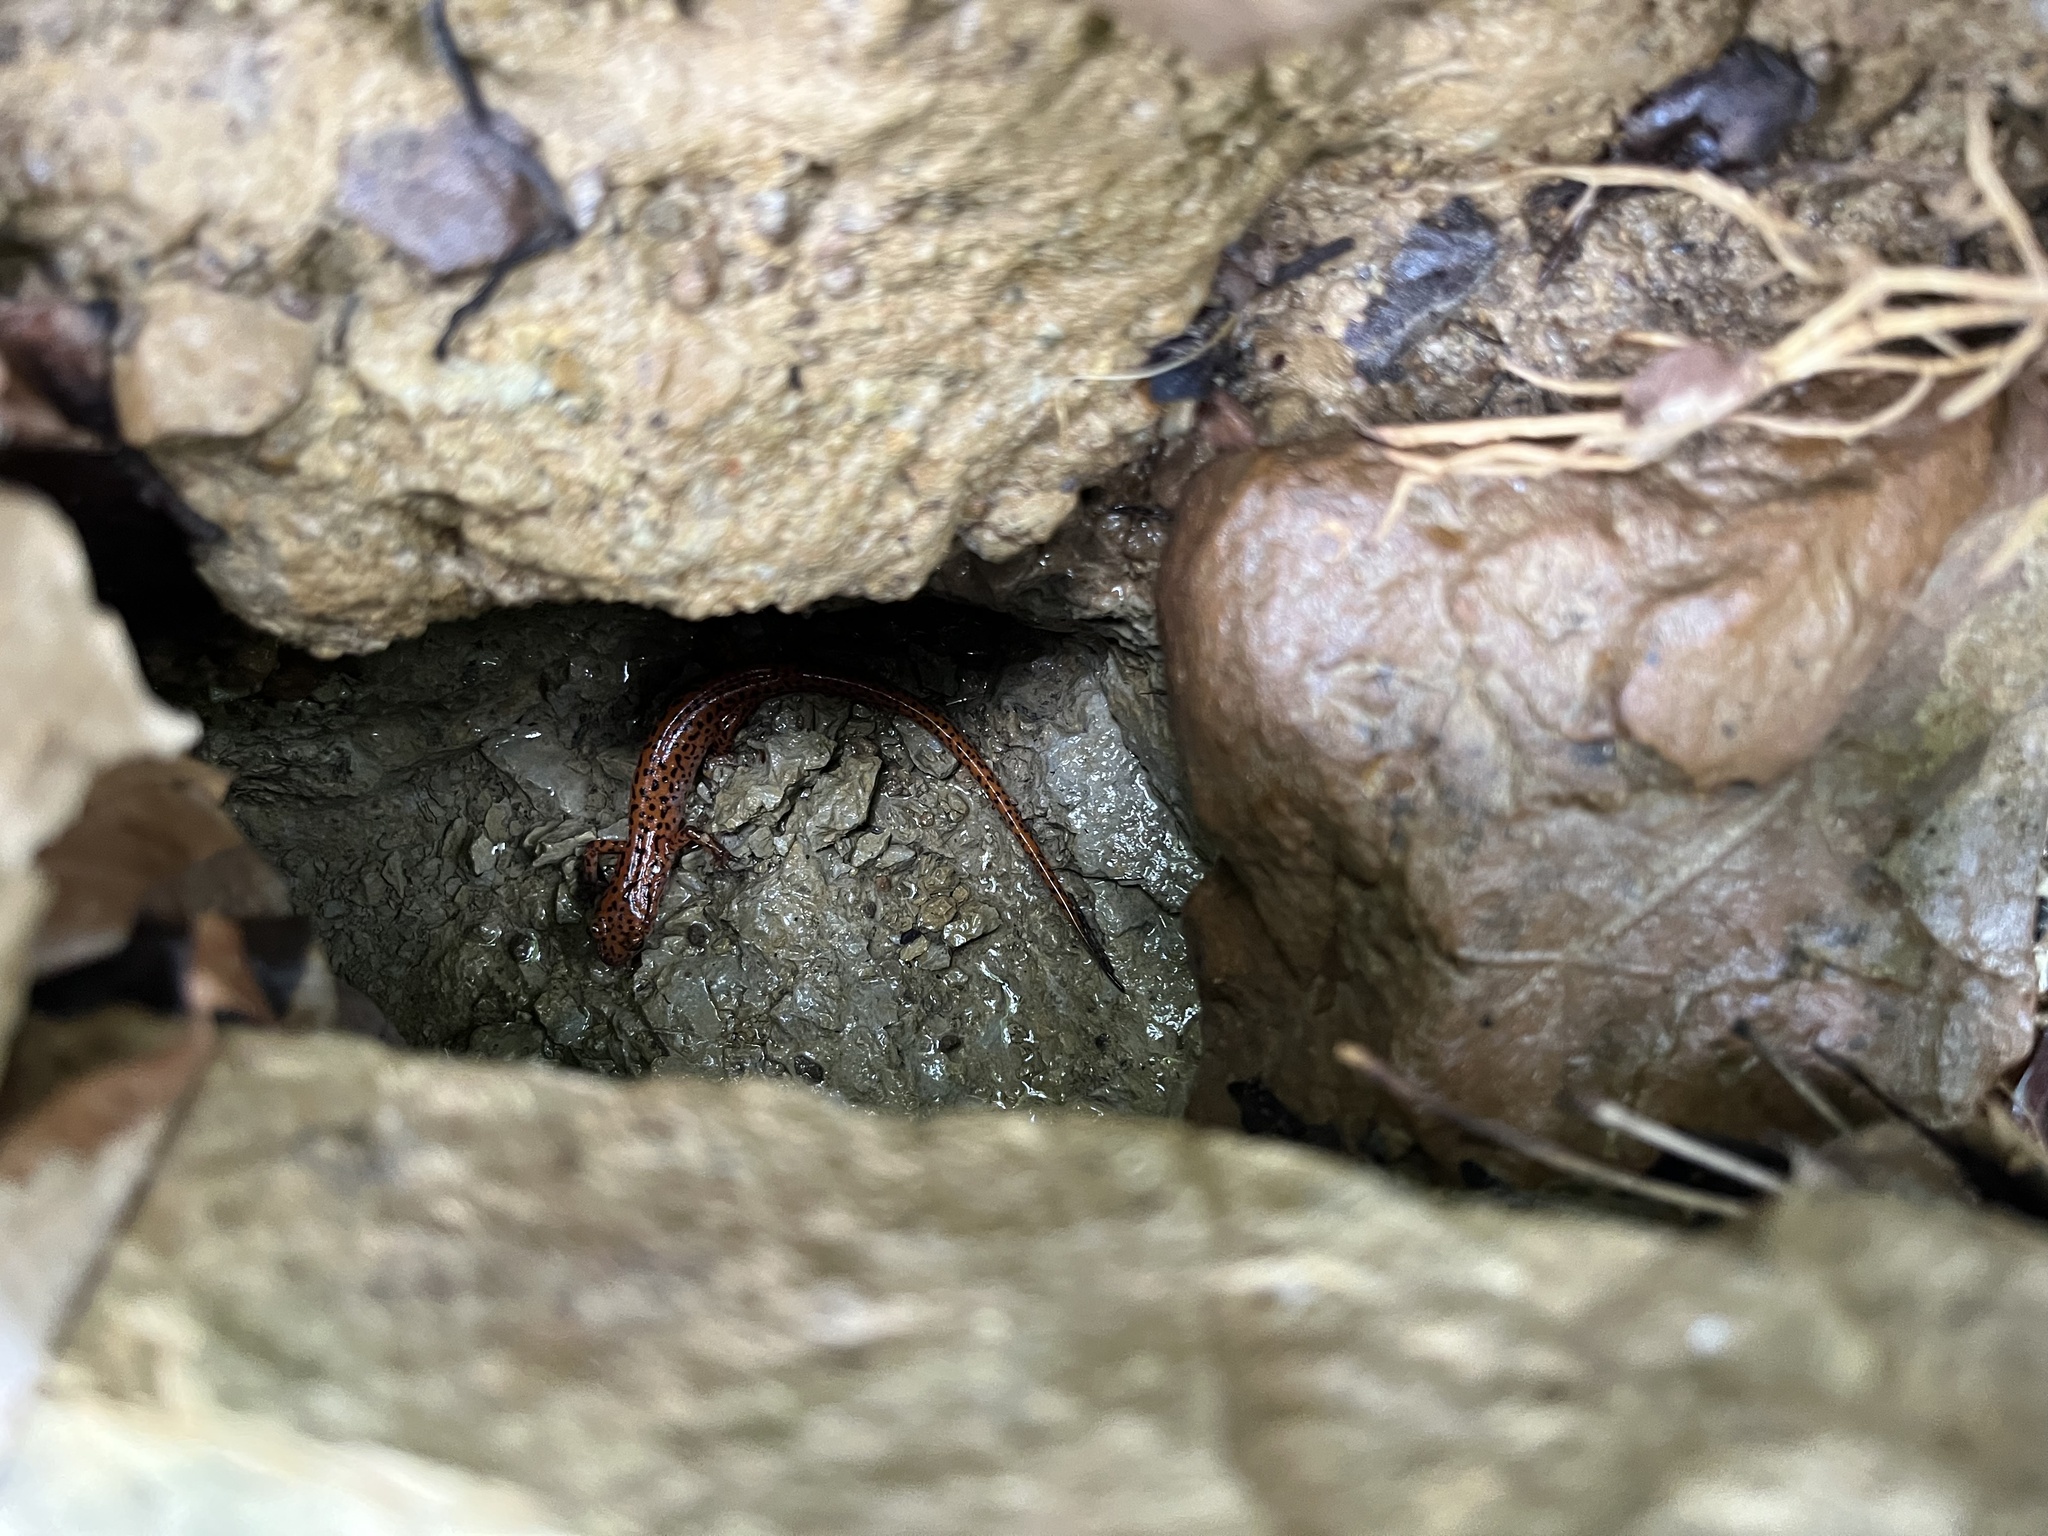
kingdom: Animalia
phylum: Chordata
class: Amphibia
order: Caudata
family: Plethodontidae
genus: Eurycea
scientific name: Eurycea lucifuga
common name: Cave salamander
